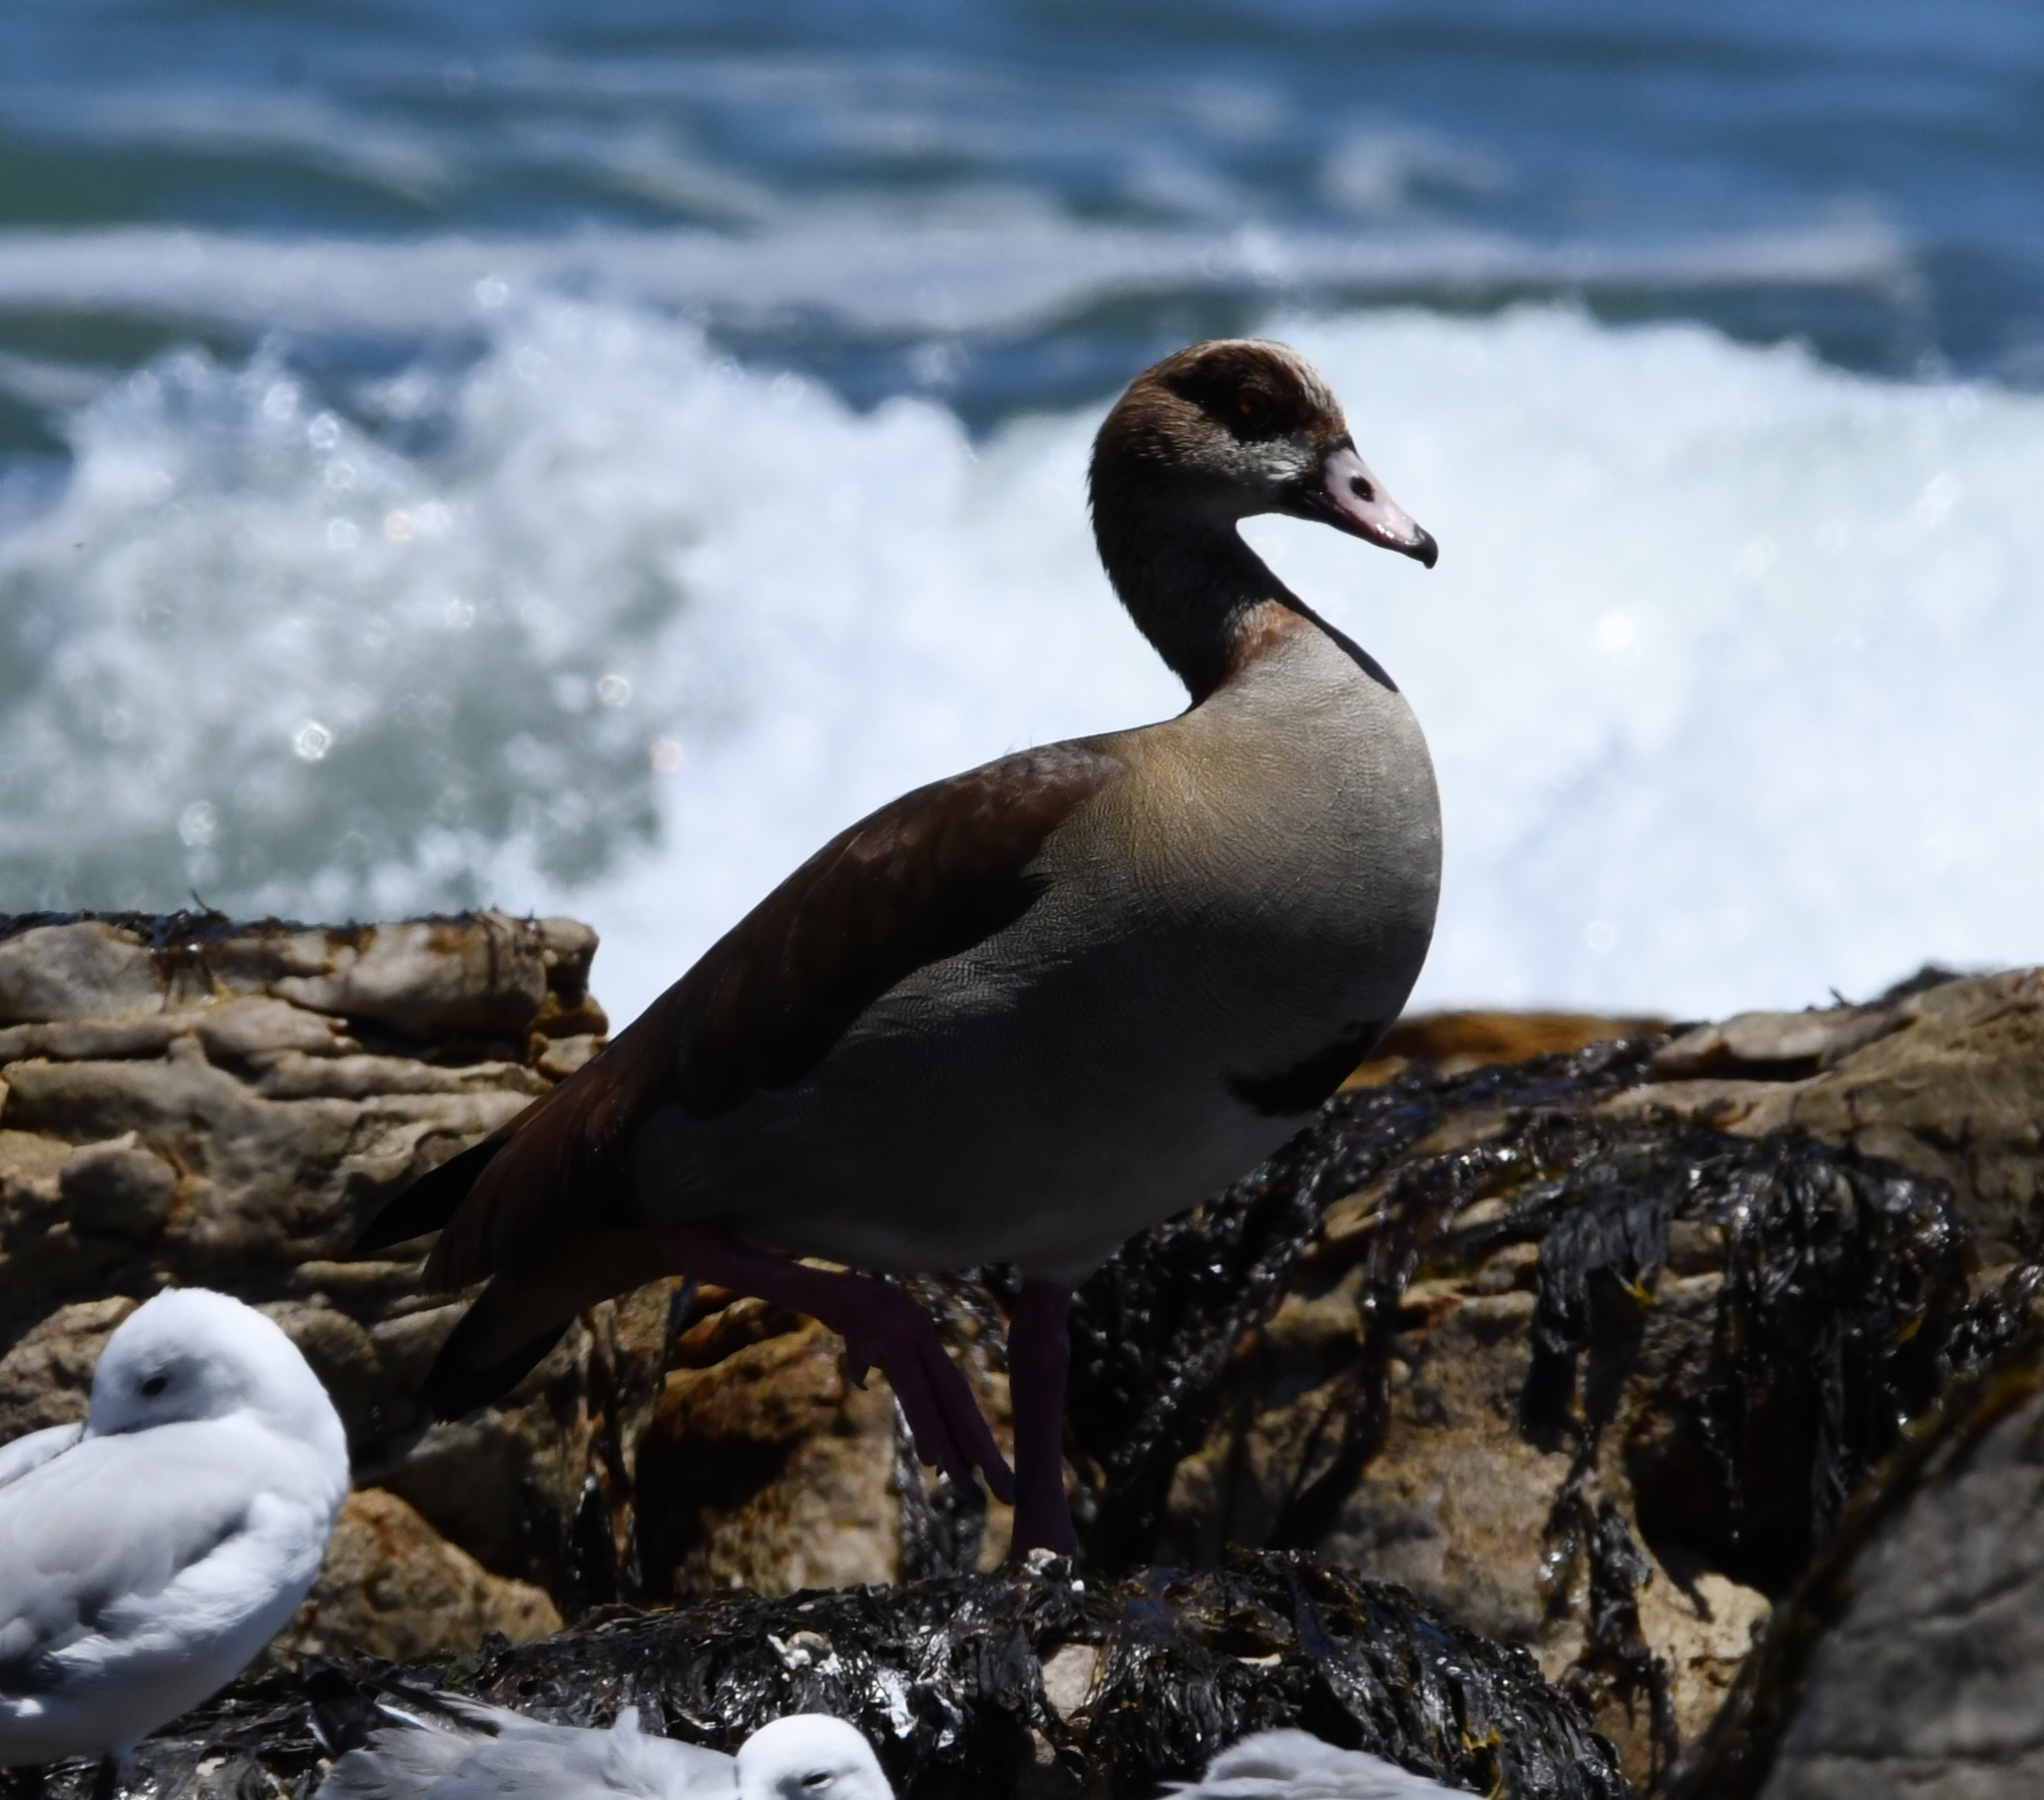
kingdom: Animalia
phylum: Chordata
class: Aves
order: Anseriformes
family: Anatidae
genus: Alopochen
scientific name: Alopochen aegyptiaca
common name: Egyptian goose
